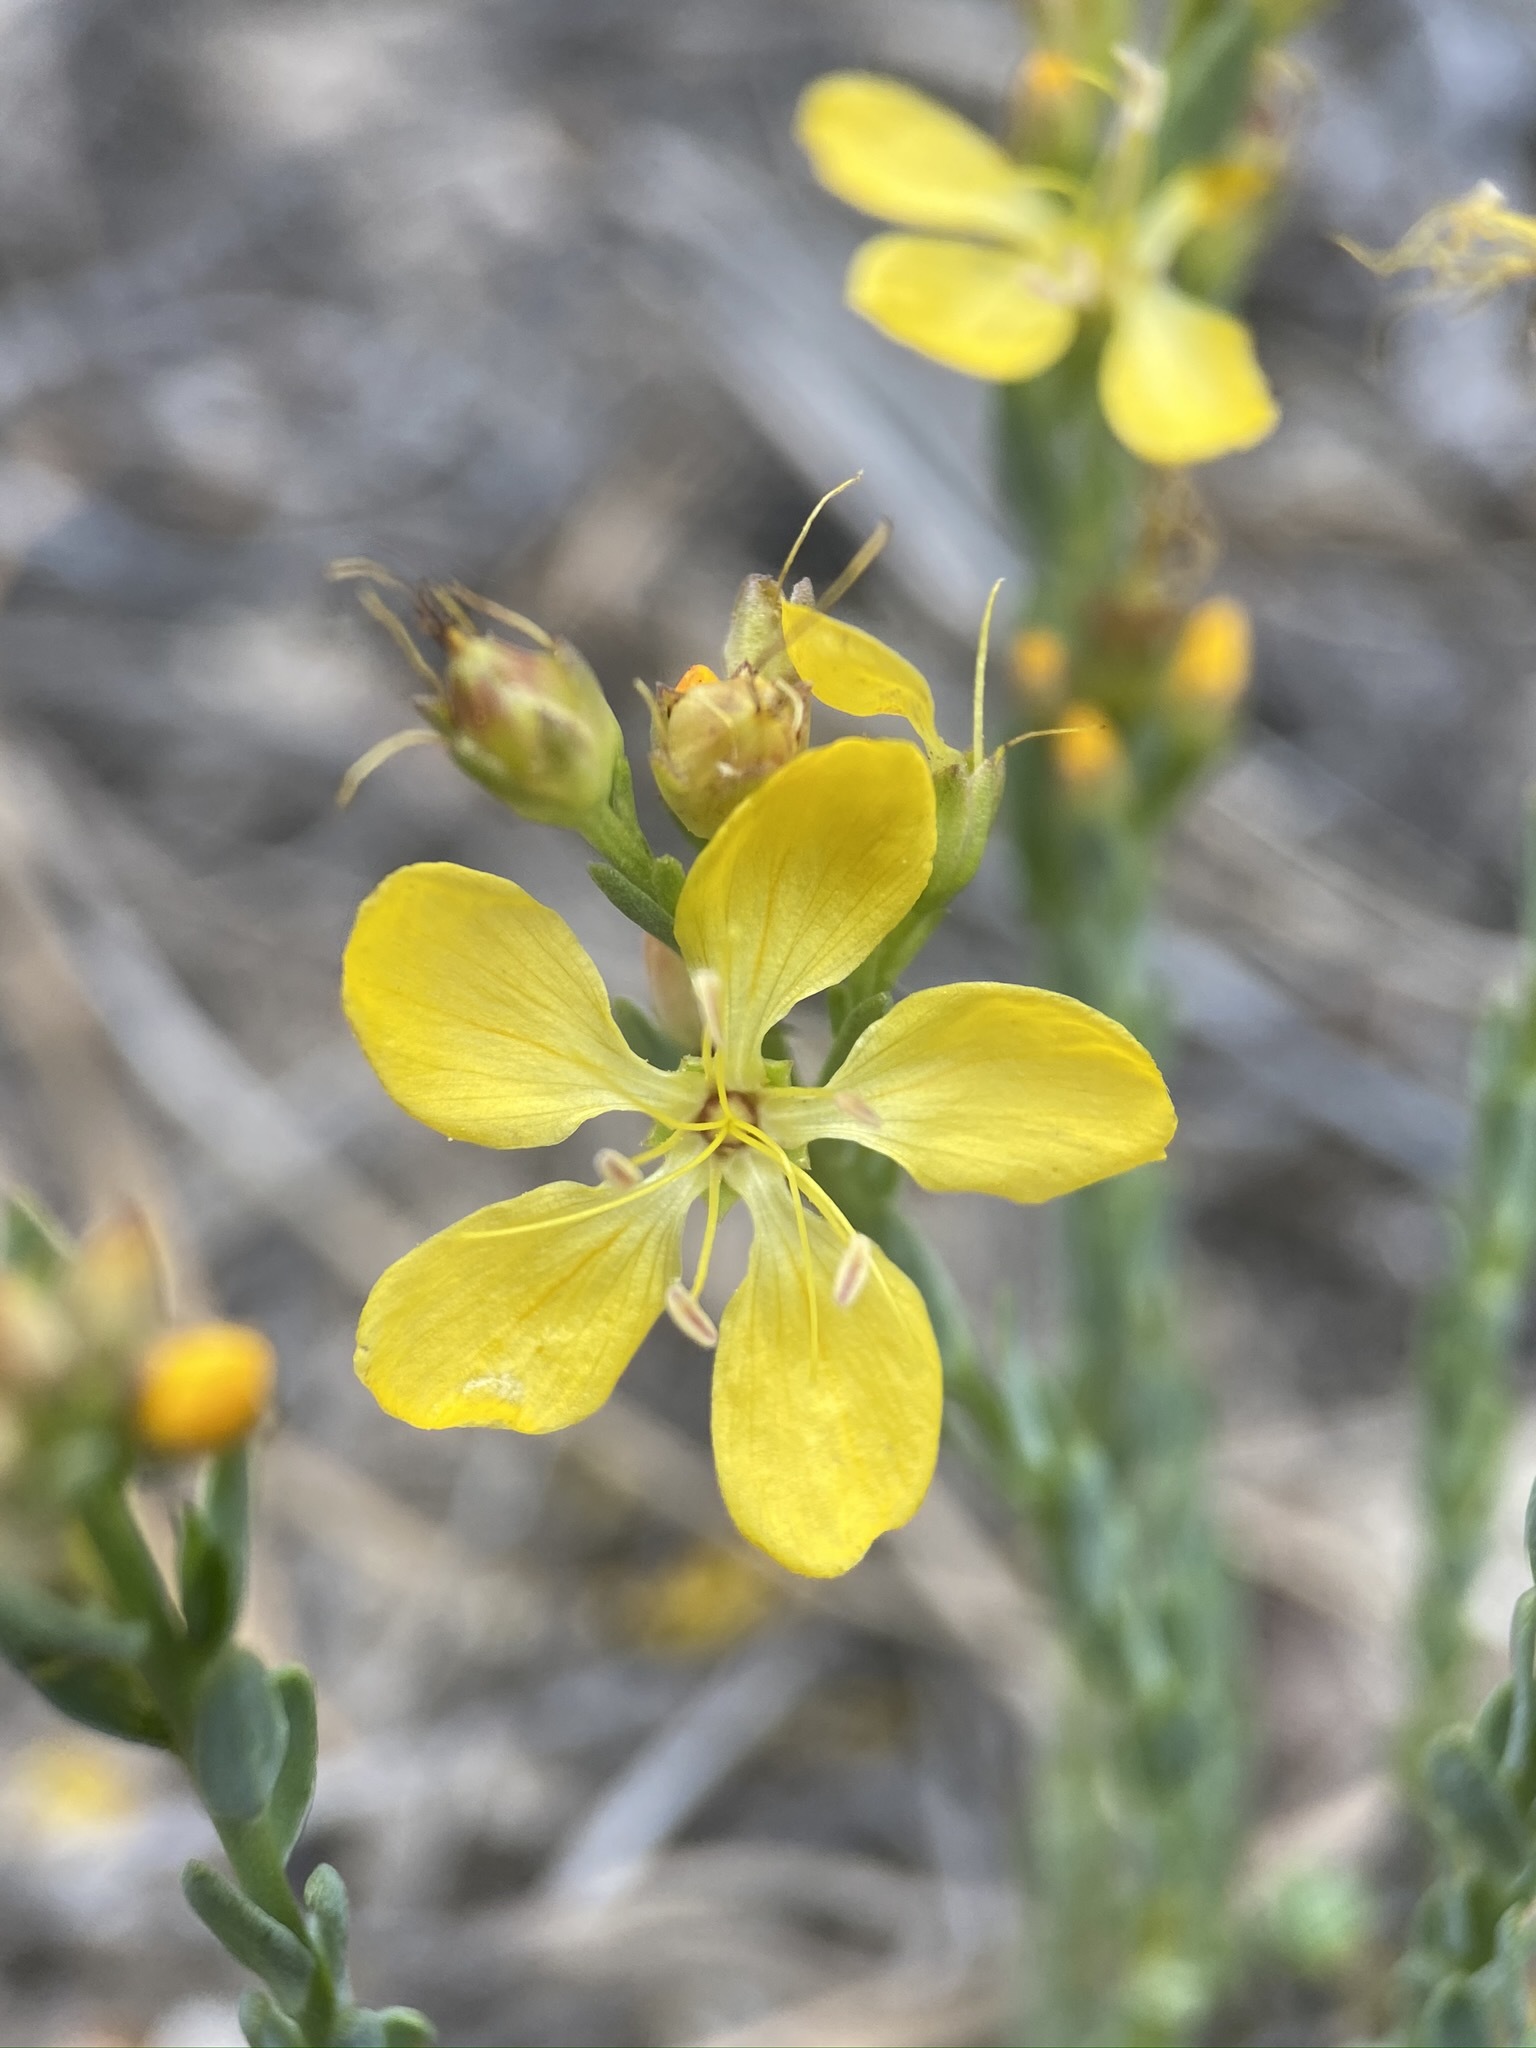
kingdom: Plantae
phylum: Tracheophyta
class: Magnoliopsida
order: Malpighiales
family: Linaceae
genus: Linum
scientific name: Linum kingii
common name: King's yellow flax
